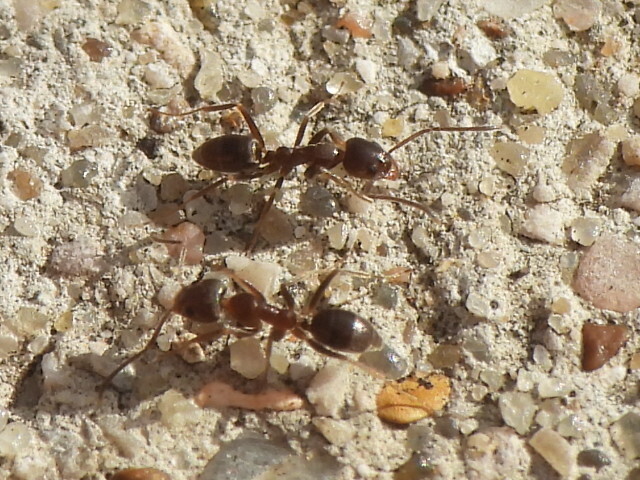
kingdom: Animalia
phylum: Arthropoda
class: Insecta
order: Hymenoptera
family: Formicidae
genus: Linepithema
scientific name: Linepithema humile
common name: Argentine ant
